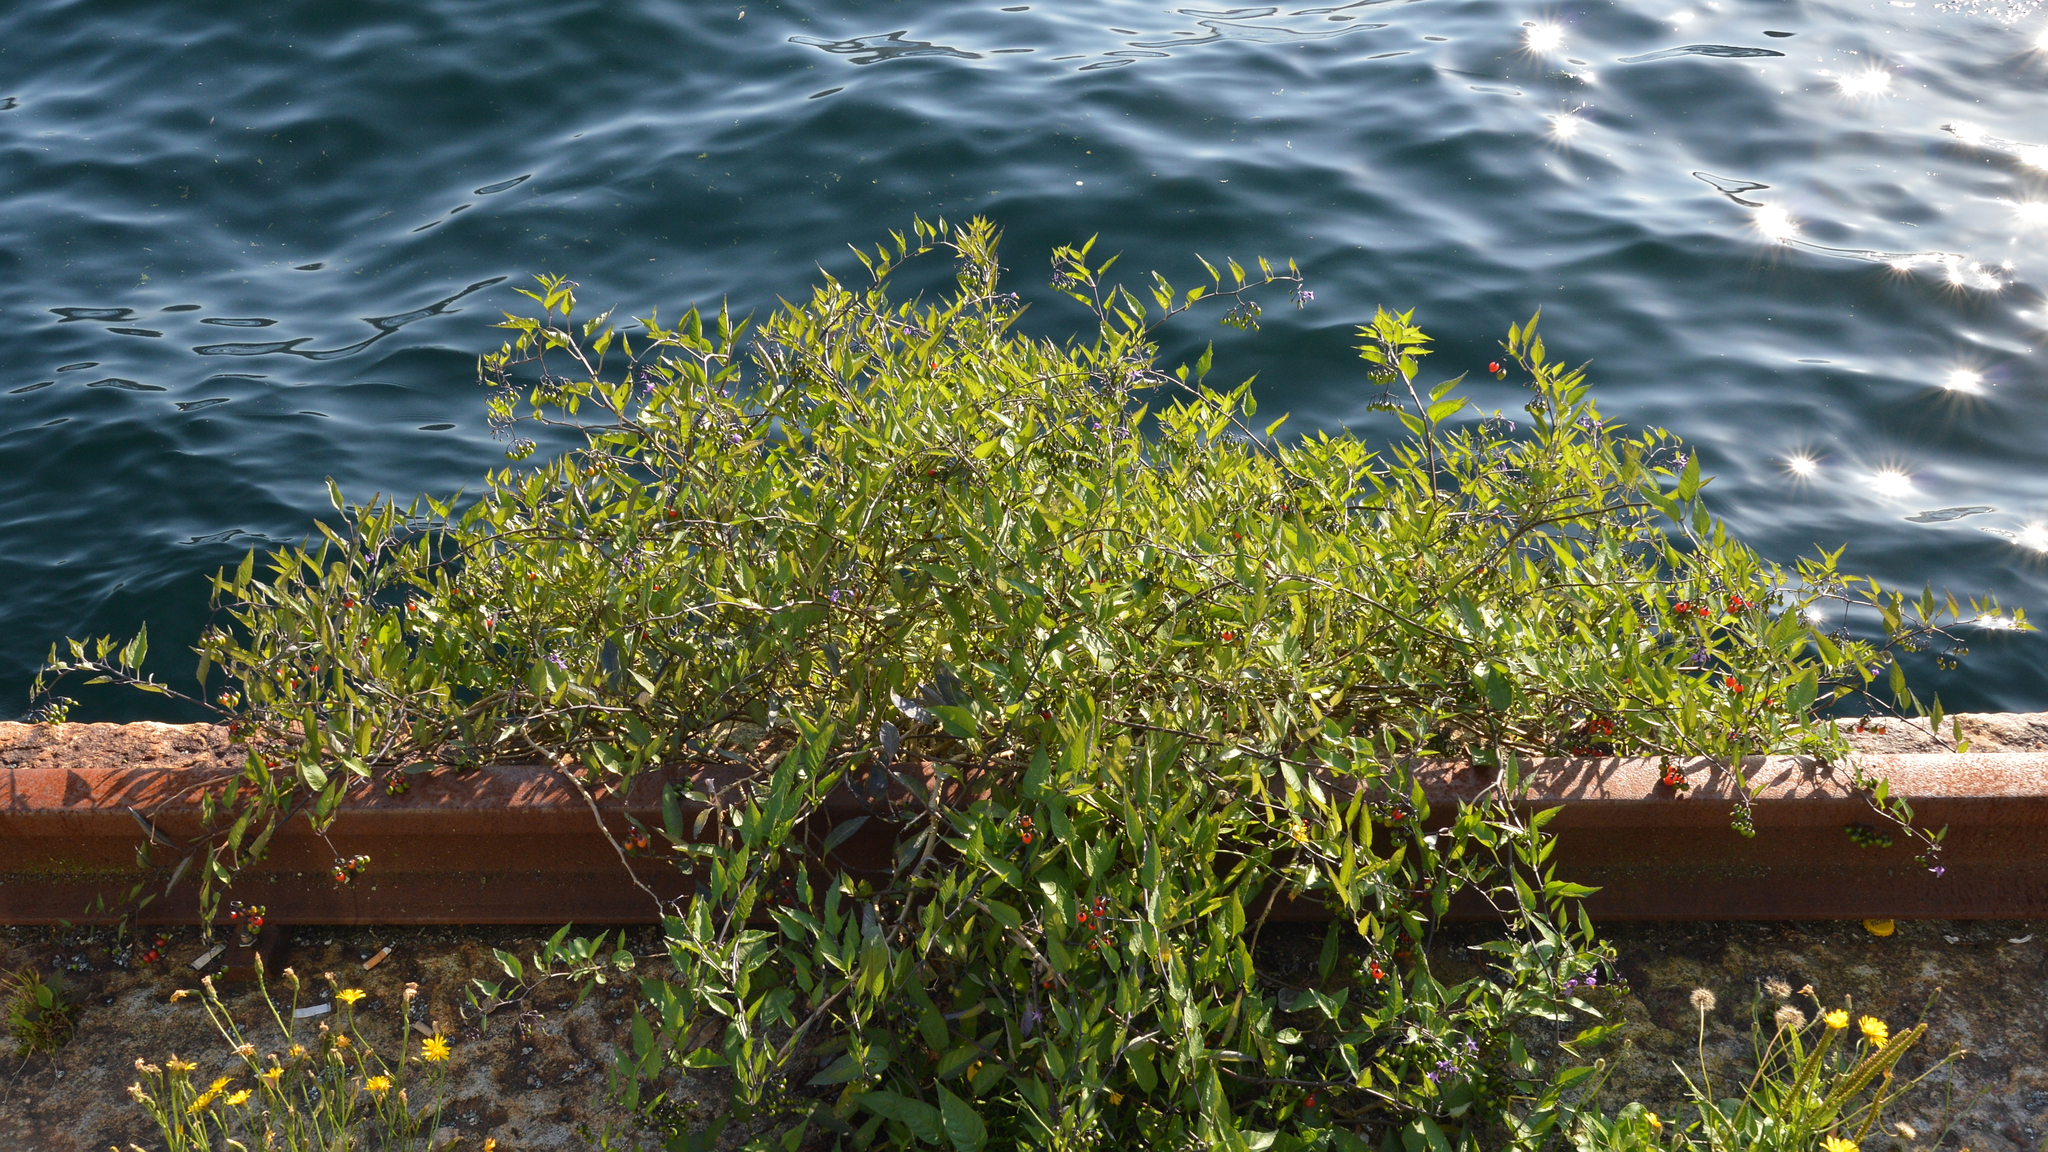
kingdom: Plantae
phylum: Tracheophyta
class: Magnoliopsida
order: Solanales
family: Solanaceae
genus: Solanum
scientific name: Solanum dulcamara
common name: Climbing nightshade
